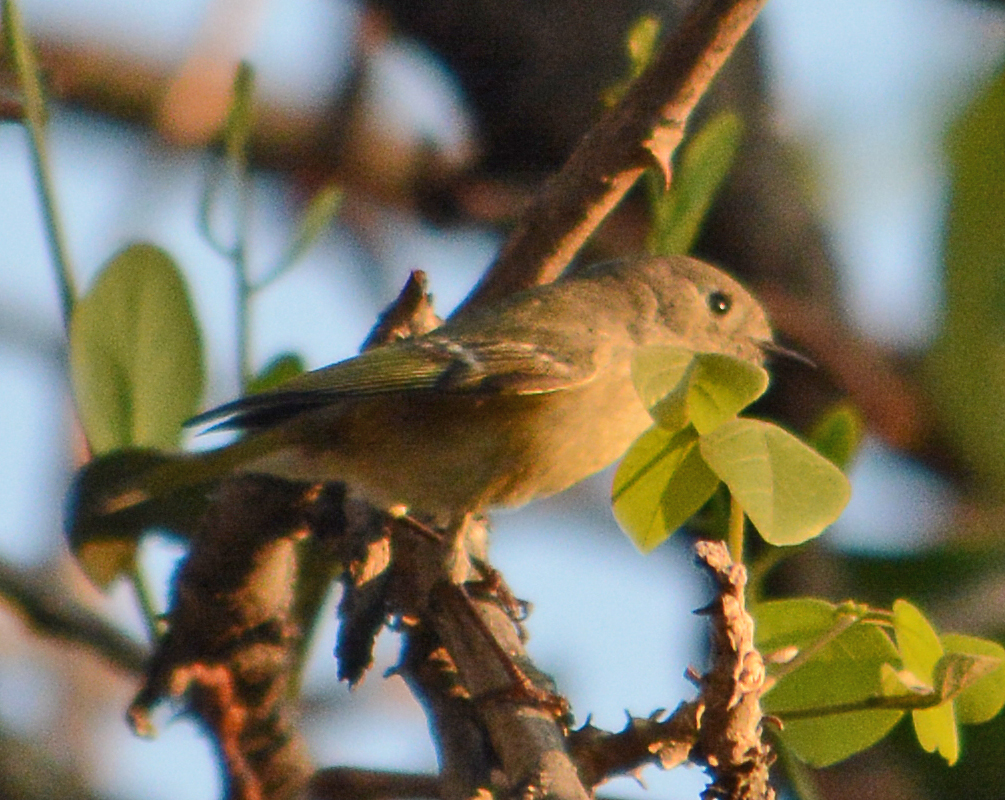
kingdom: Animalia
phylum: Chordata
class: Aves
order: Passeriformes
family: Regulidae
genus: Regulus
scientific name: Regulus calendula
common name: Ruby-crowned kinglet
